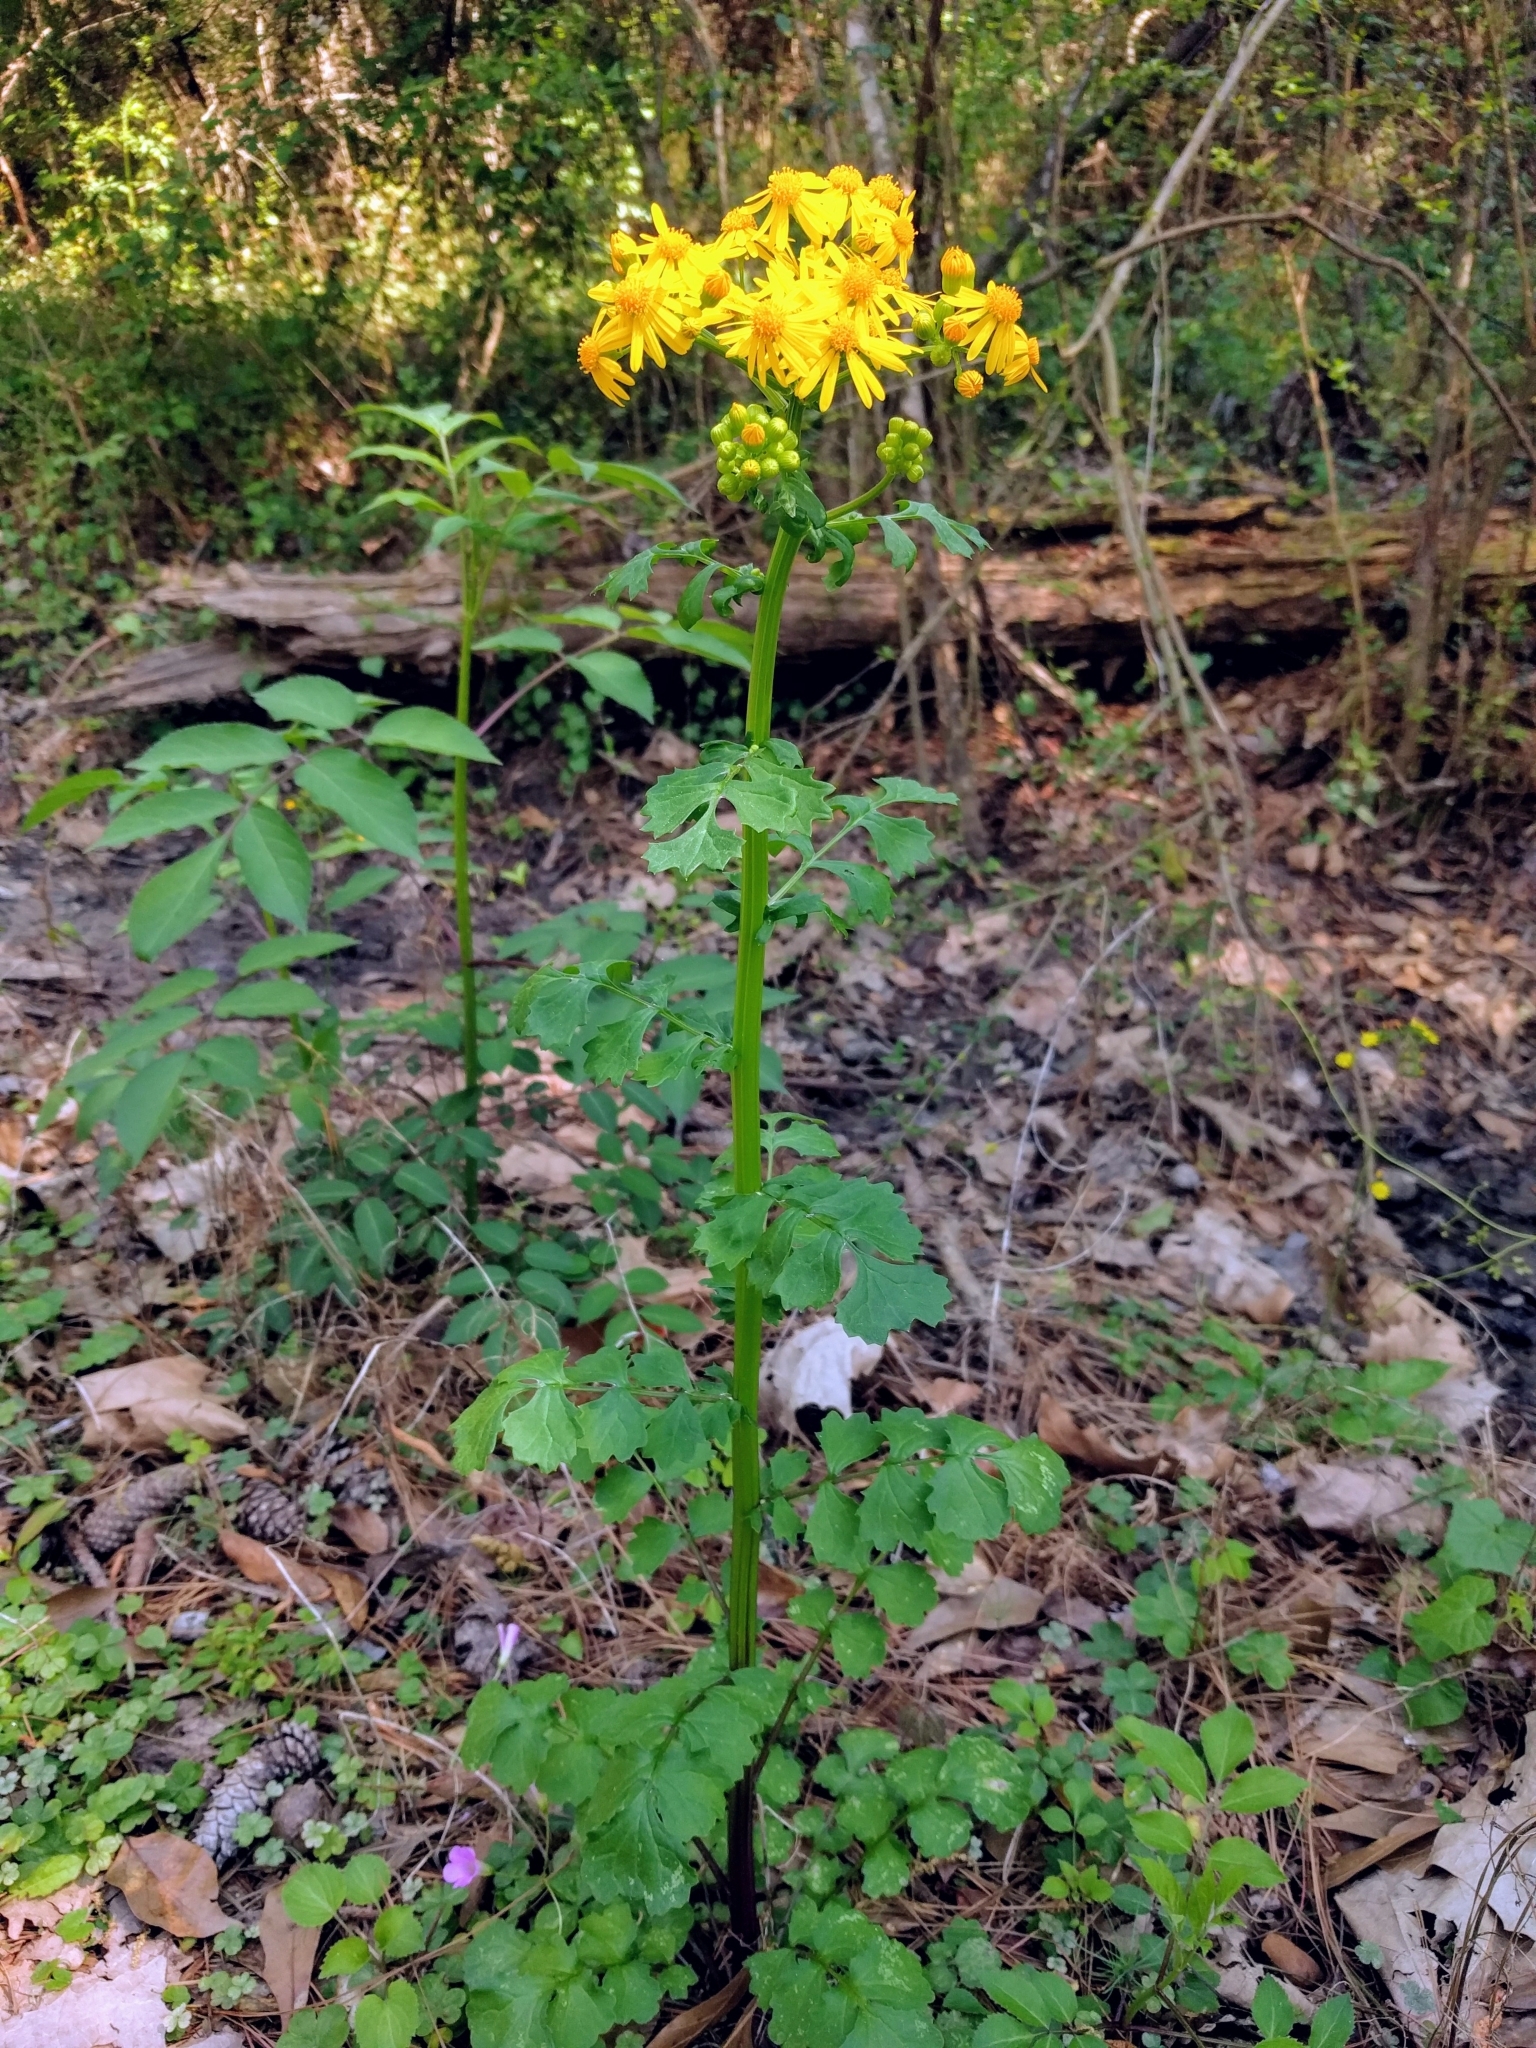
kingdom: Plantae
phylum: Tracheophyta
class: Magnoliopsida
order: Asterales
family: Asteraceae
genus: Packera
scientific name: Packera glabella
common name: Butterweed
